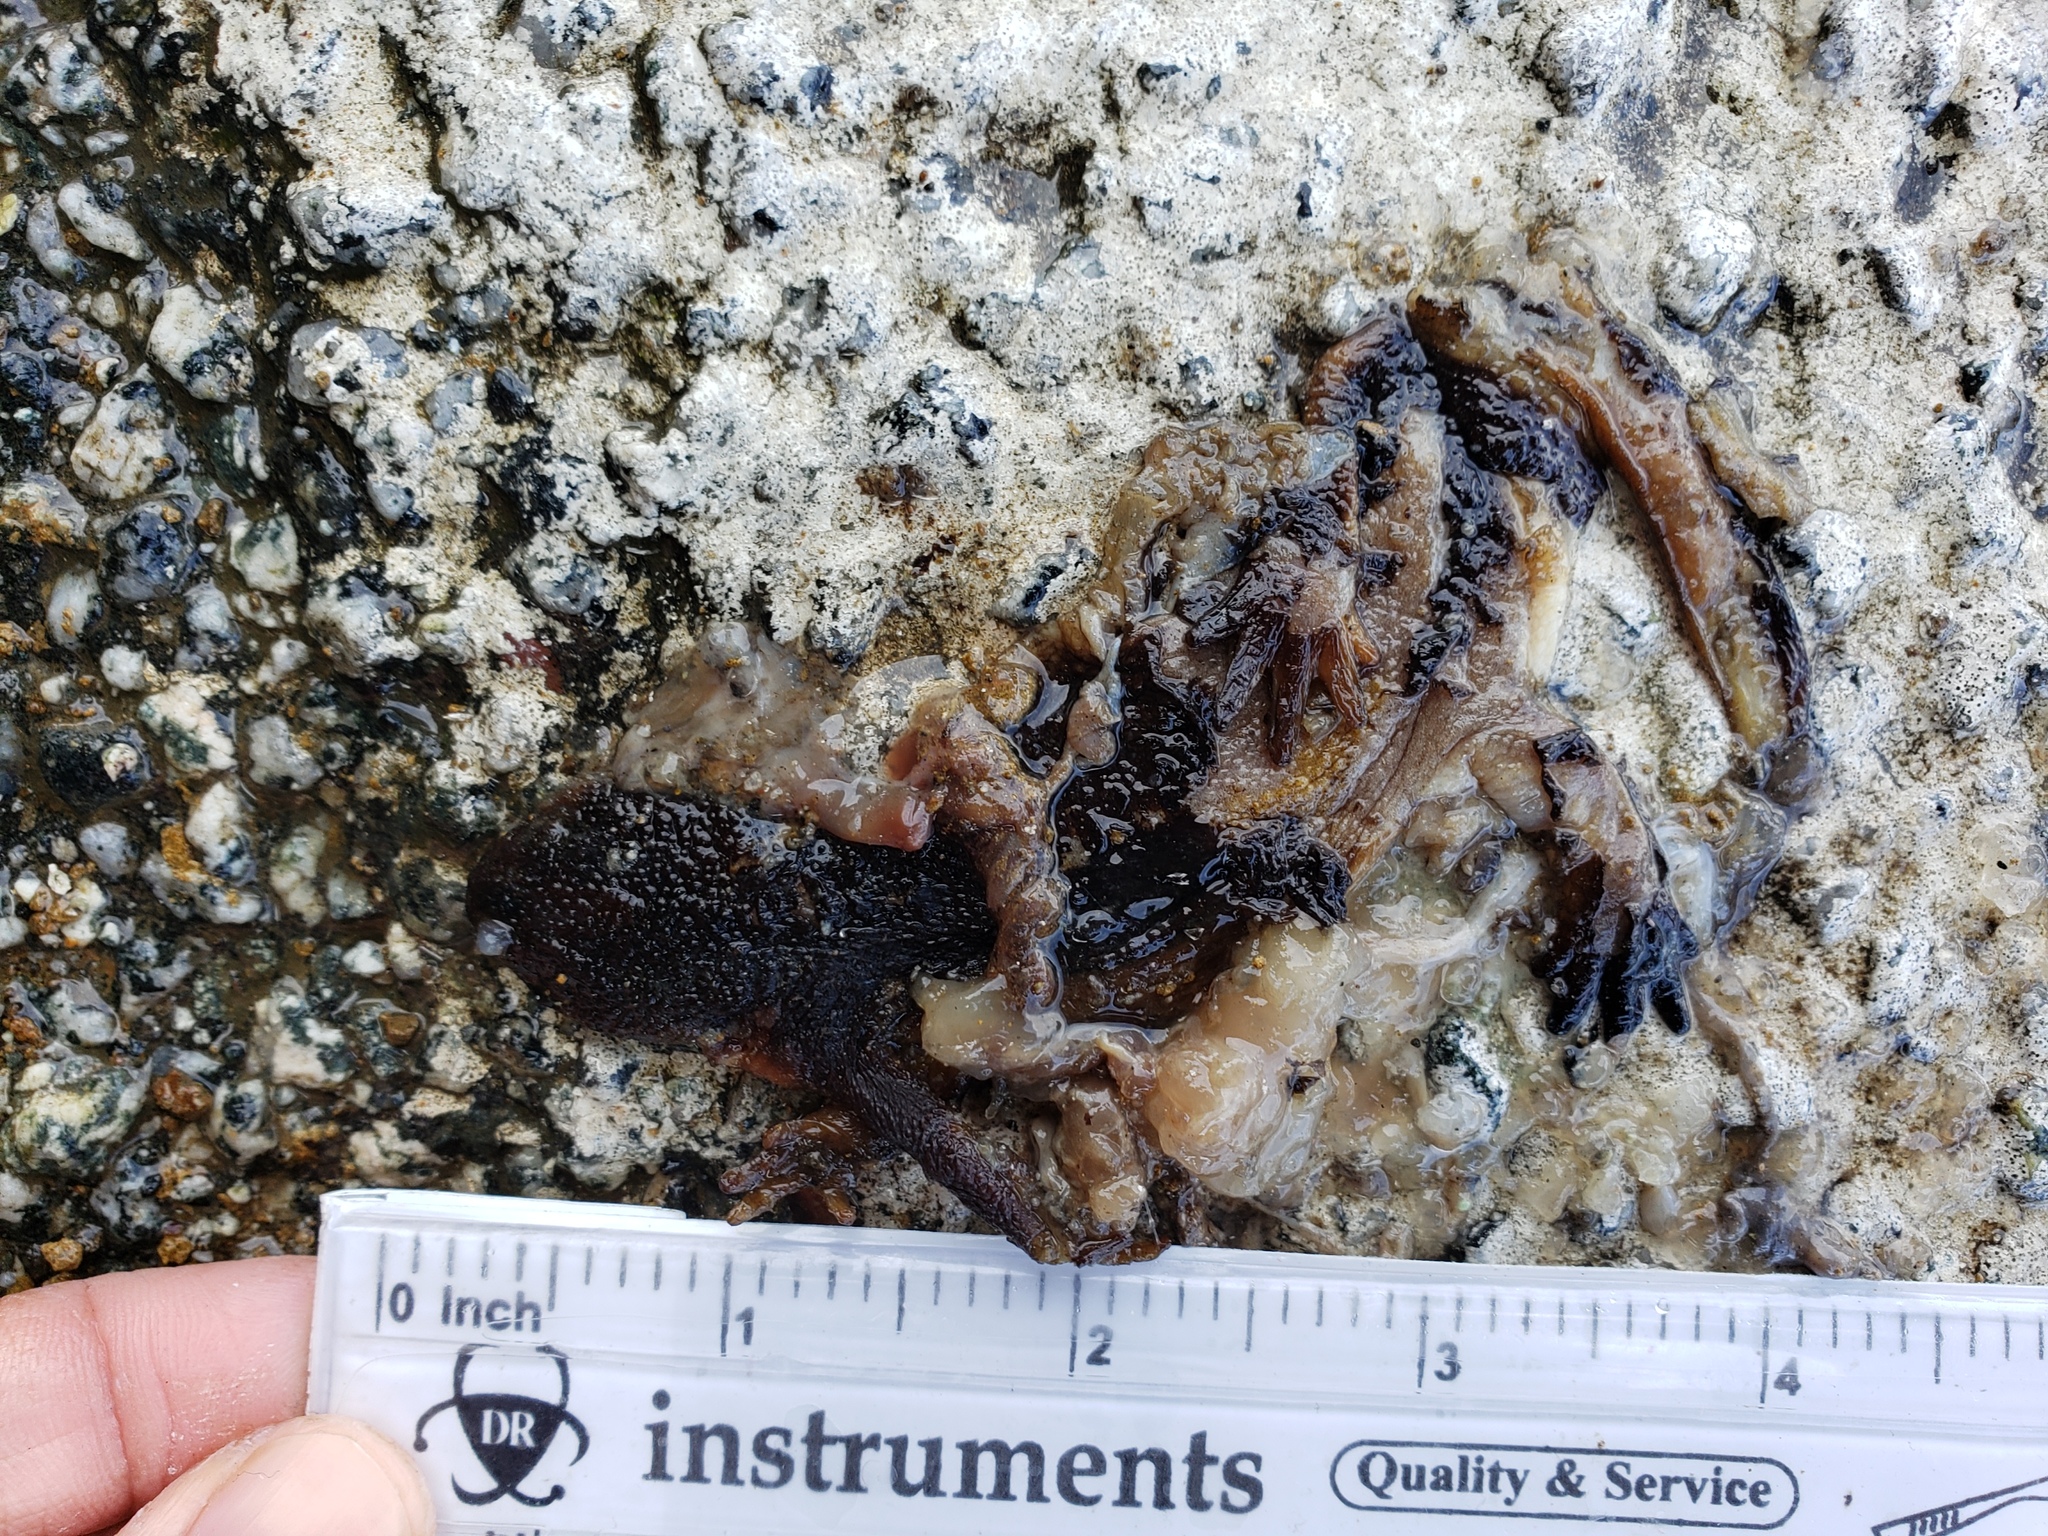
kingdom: Animalia
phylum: Chordata
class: Amphibia
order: Caudata
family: Salamandridae
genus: Taricha
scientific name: Taricha
